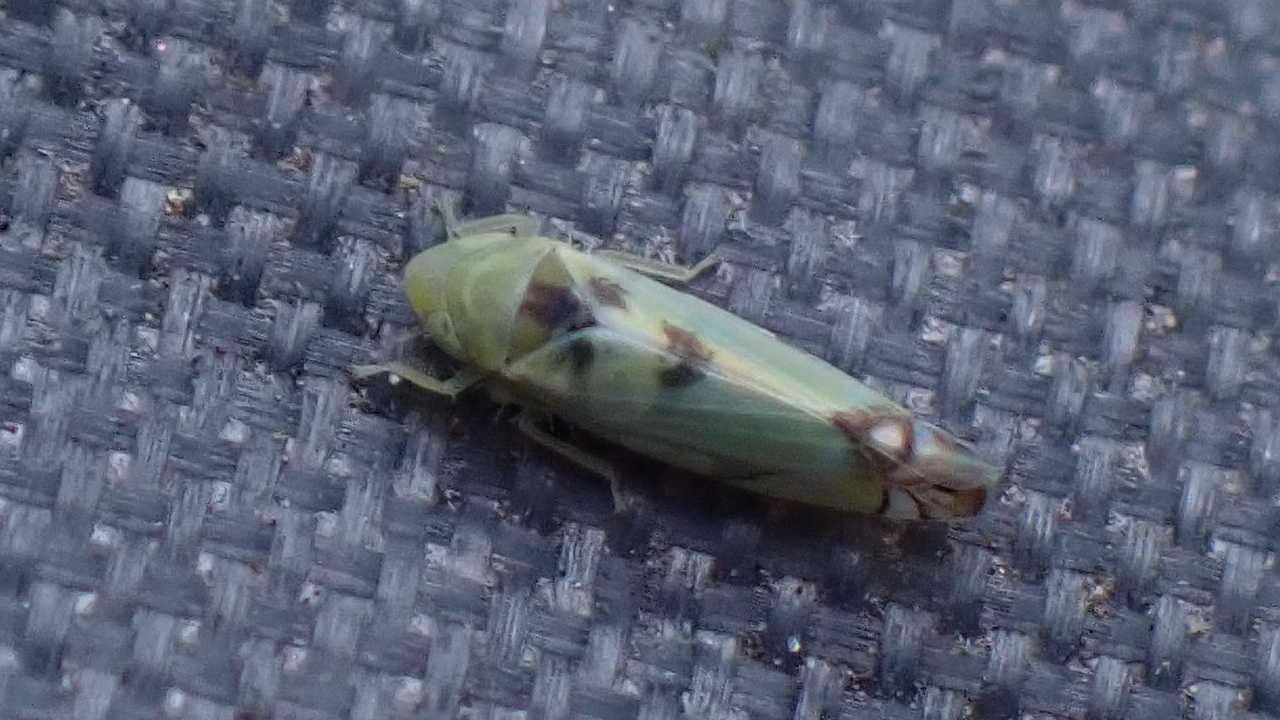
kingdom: Animalia
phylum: Arthropoda
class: Insecta
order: Hemiptera
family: Cicadellidae
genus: Zyginella
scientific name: Zyginella pulchra
